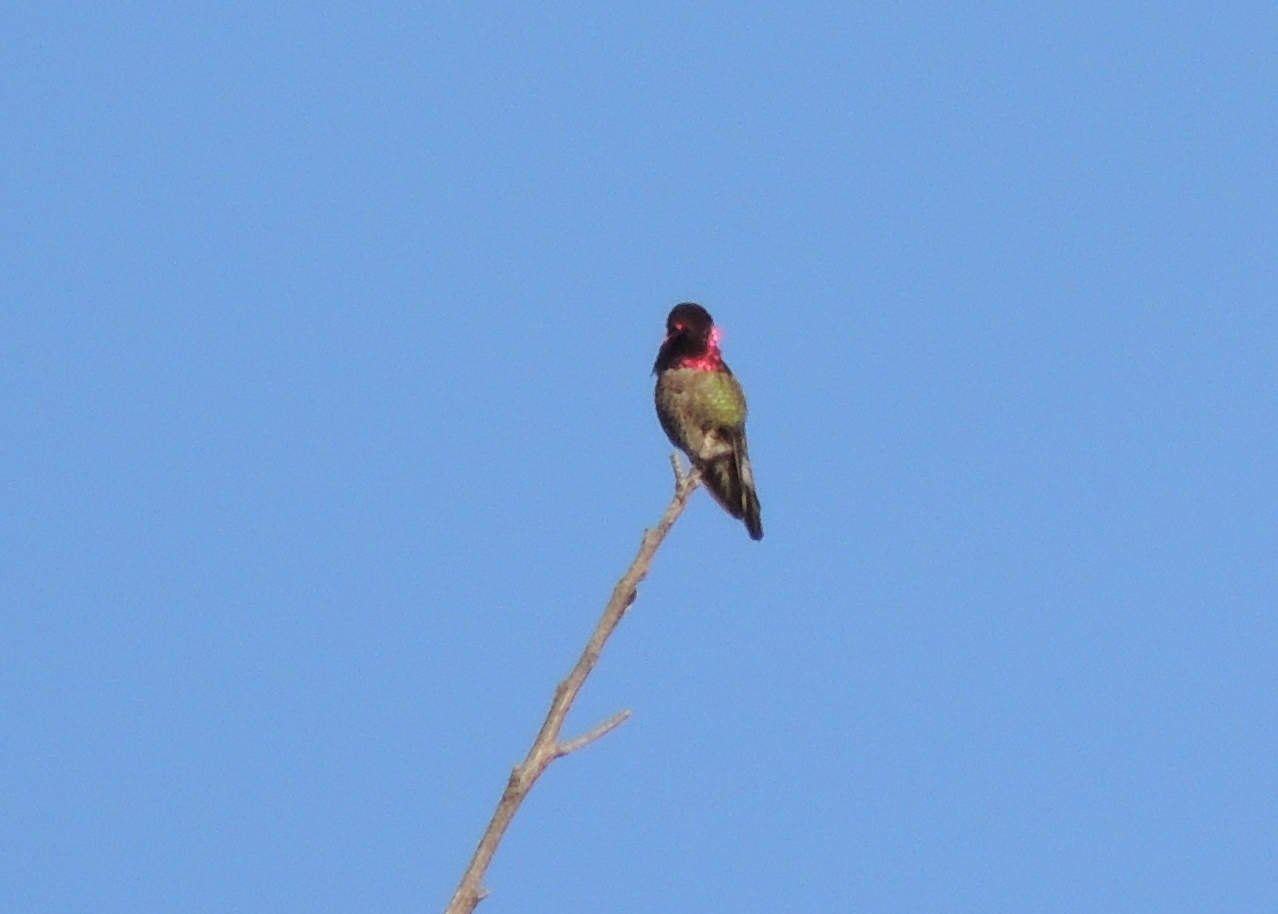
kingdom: Animalia
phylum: Chordata
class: Aves
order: Apodiformes
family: Trochilidae
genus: Calypte
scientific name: Calypte anna
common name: Anna's hummingbird
